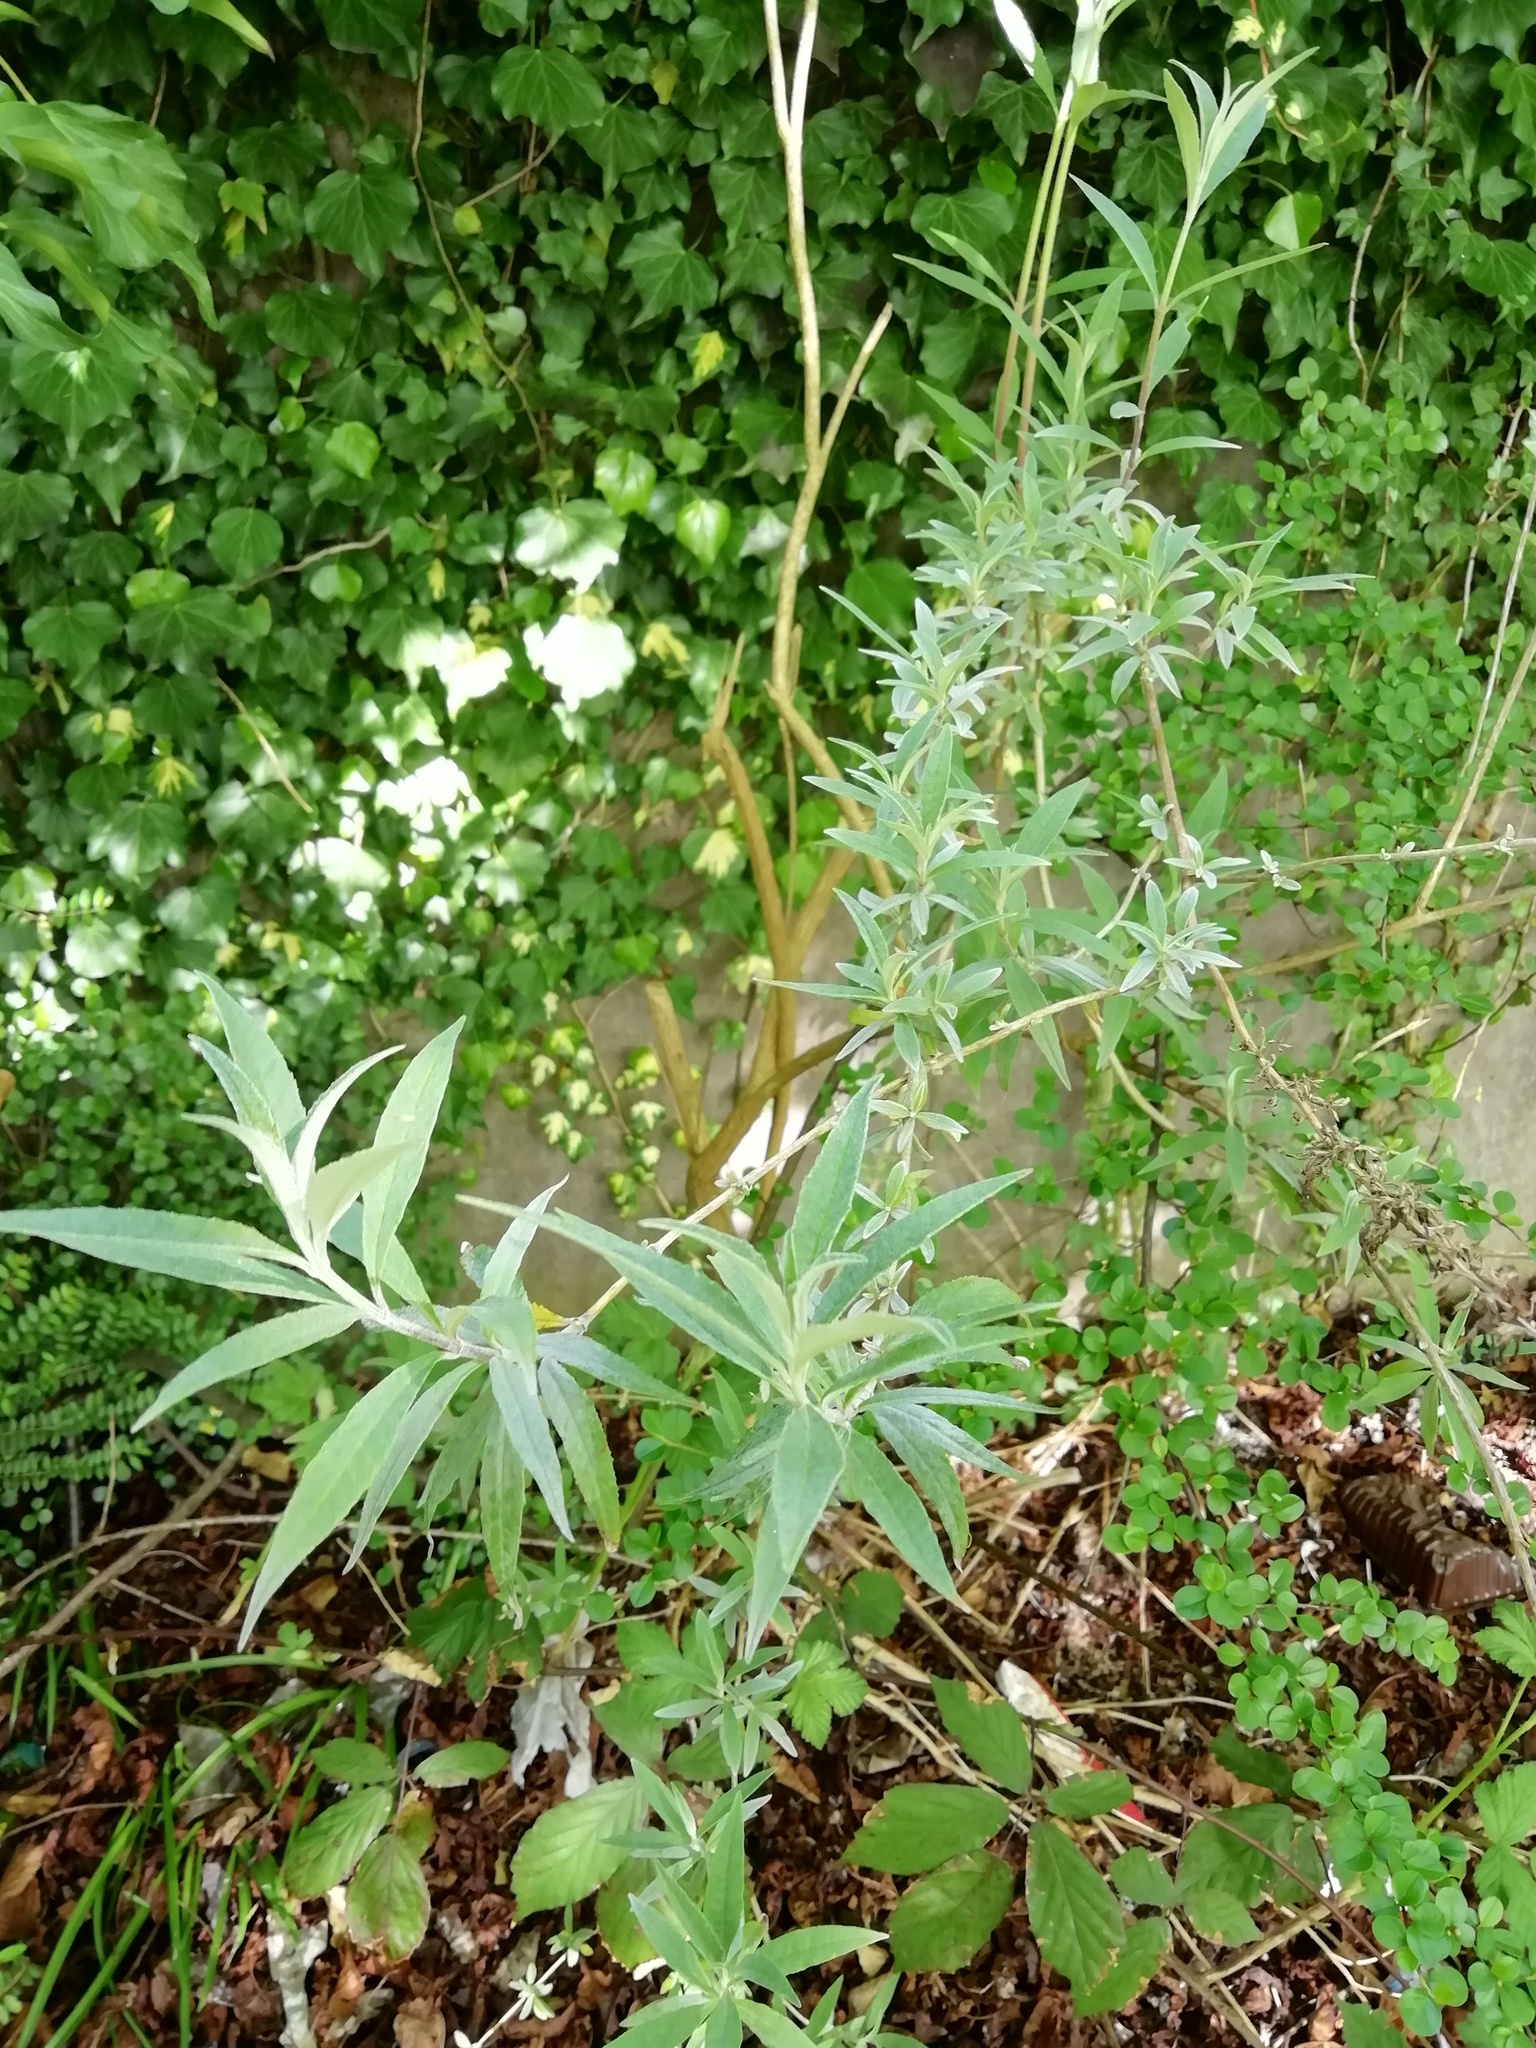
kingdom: Plantae
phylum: Tracheophyta
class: Magnoliopsida
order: Lamiales
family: Scrophulariaceae
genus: Buddleja
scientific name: Buddleja davidii
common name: Butterfly-bush
